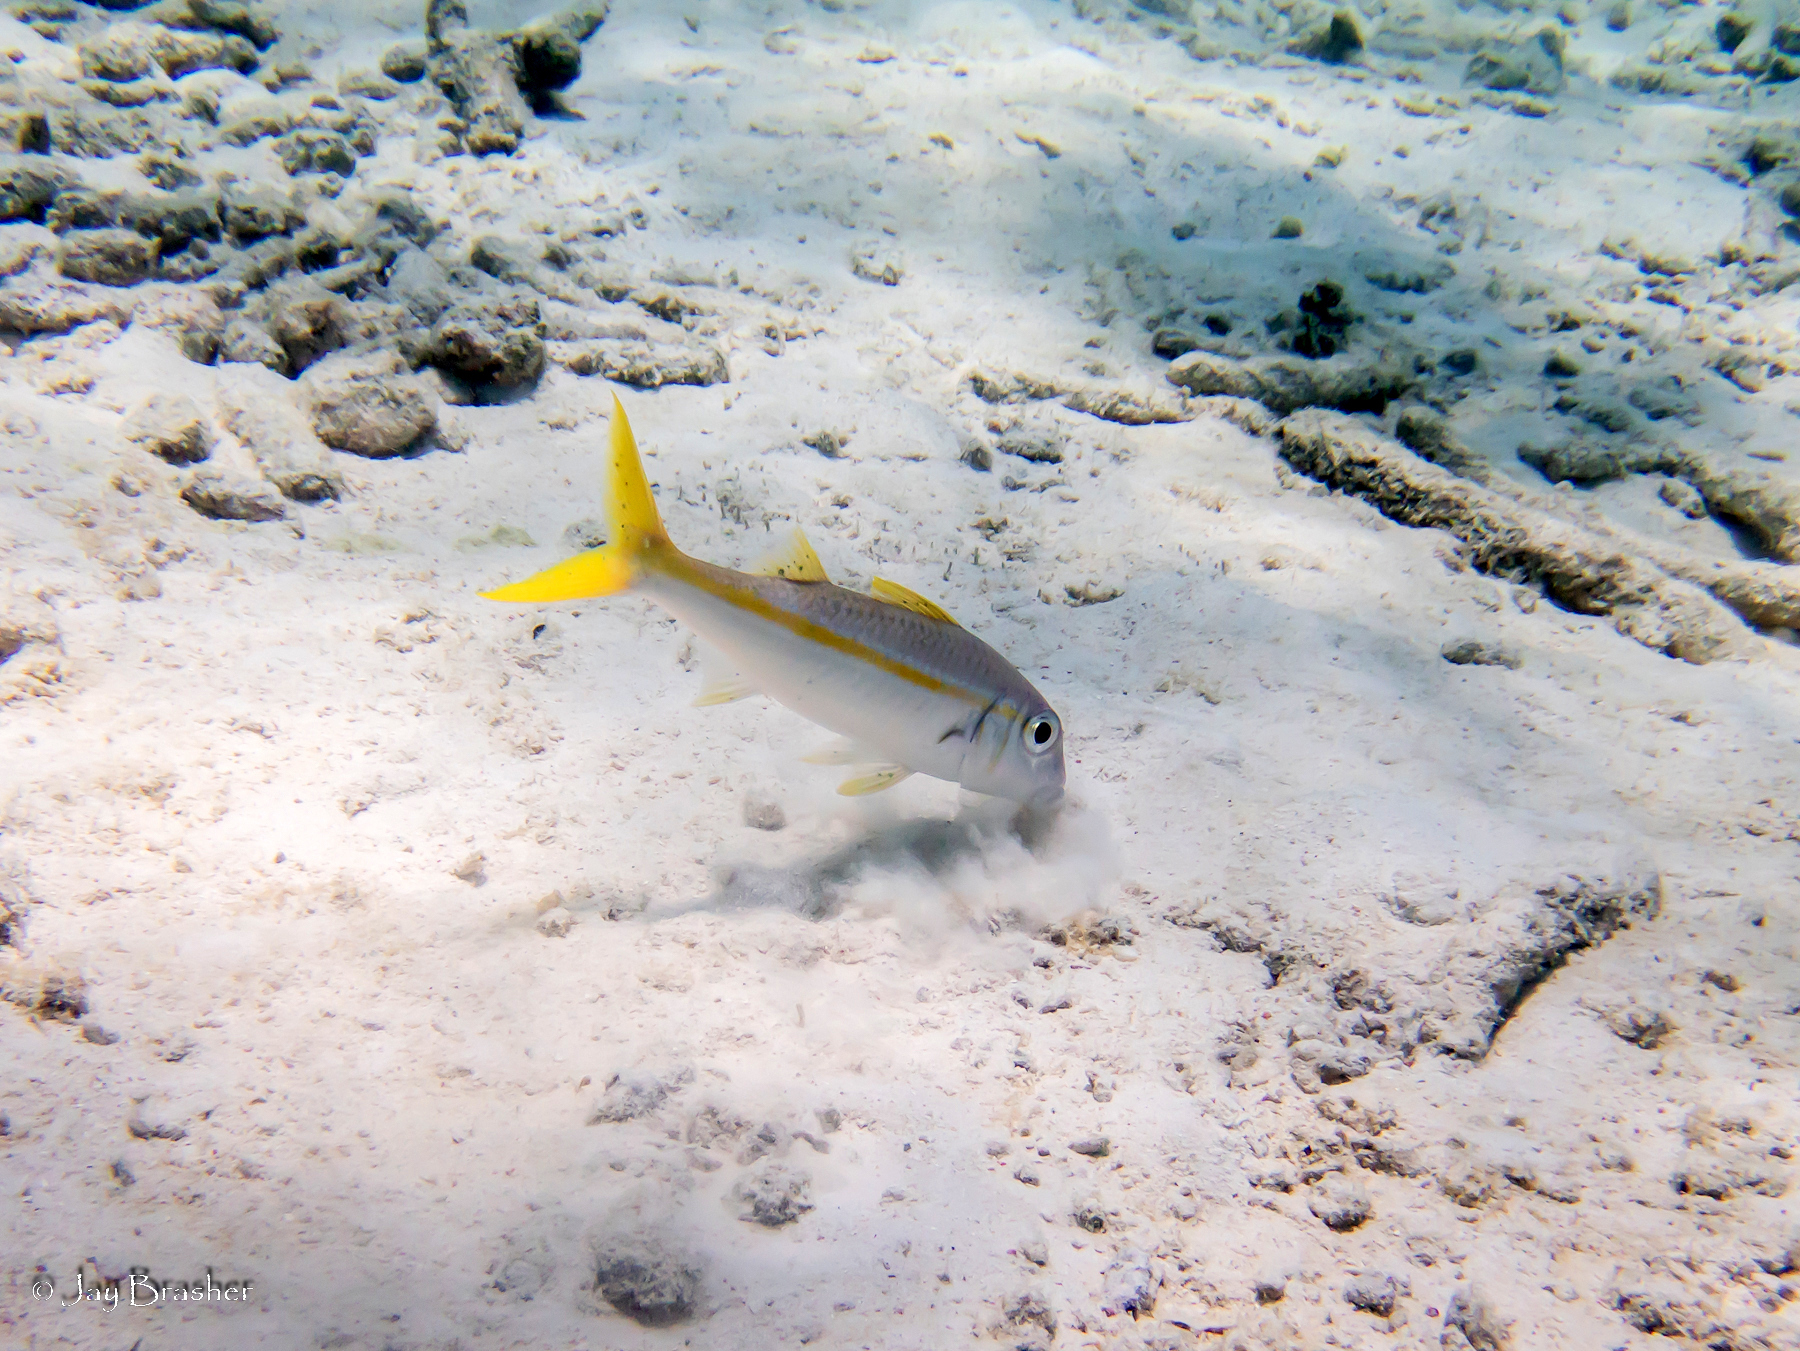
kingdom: Animalia
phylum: Chordata
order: Perciformes
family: Mullidae
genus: Mulloidichthys
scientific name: Mulloidichthys martinicus
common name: Yellow goatfish
